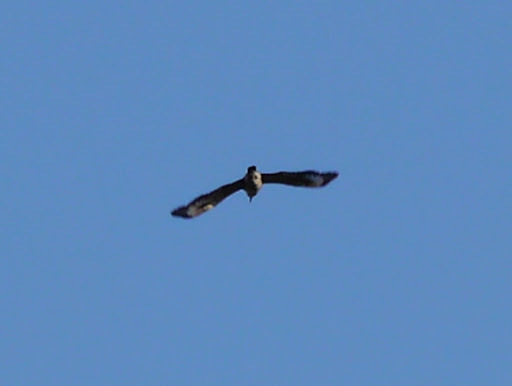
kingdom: Animalia
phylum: Chordata
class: Aves
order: Coraciiformes
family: Alcedinidae
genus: Megaceryle
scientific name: Megaceryle alcyon
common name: Belted kingfisher
